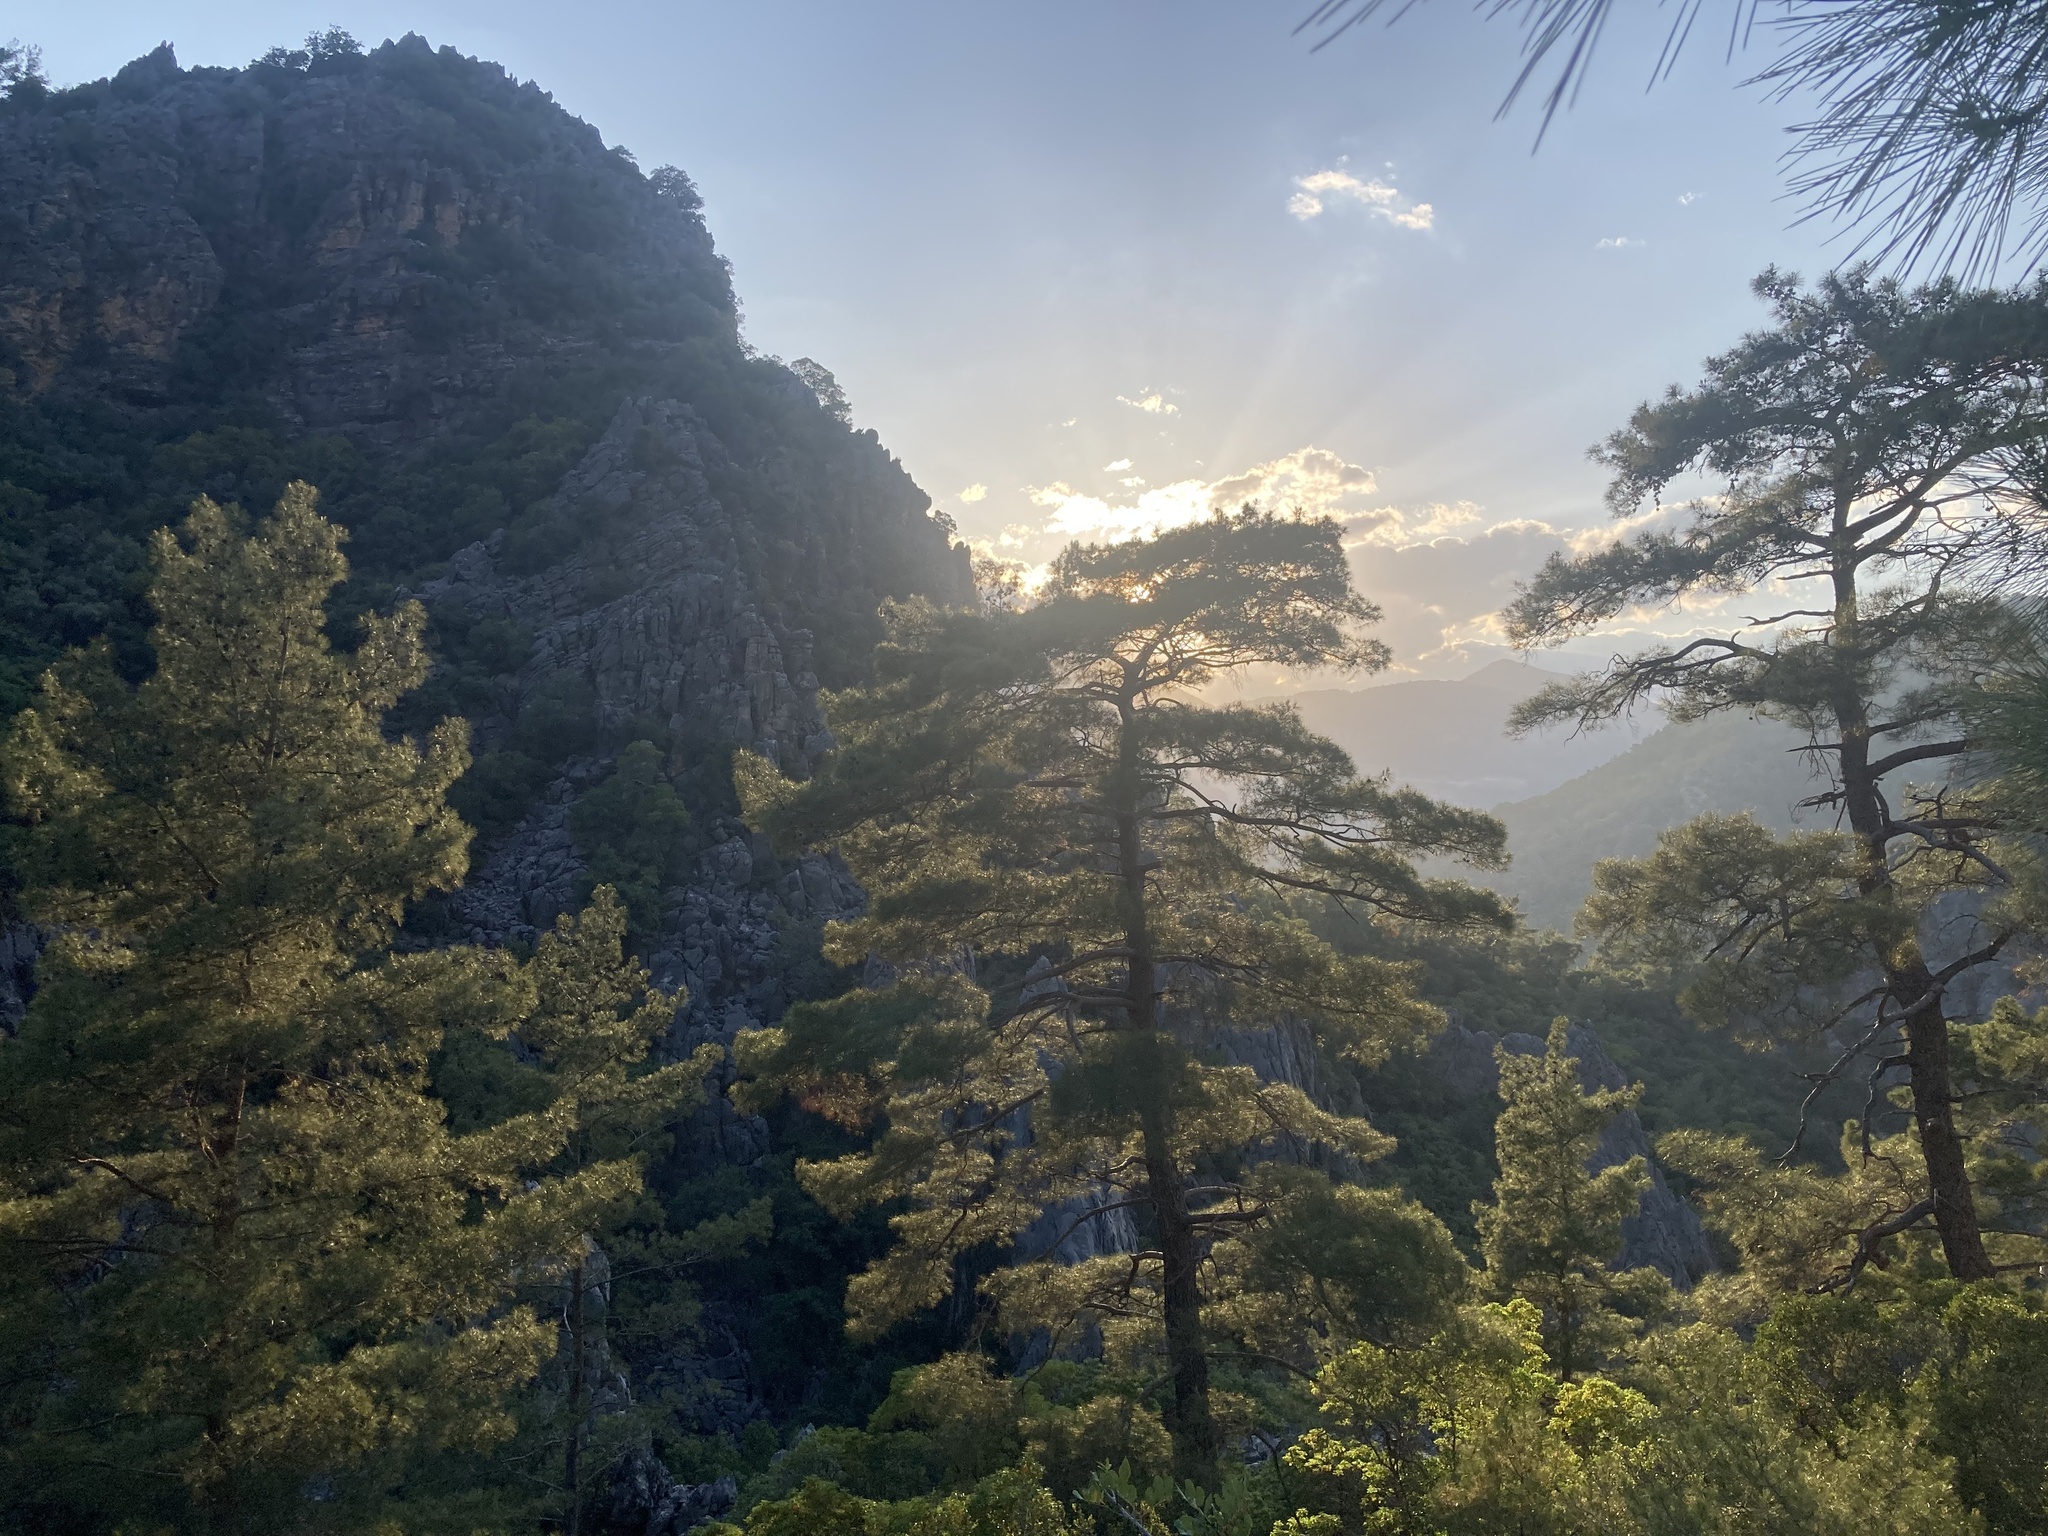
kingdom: Plantae
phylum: Tracheophyta
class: Pinopsida
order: Pinales
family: Pinaceae
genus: Pinus
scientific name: Pinus brutia
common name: Turkish pine
